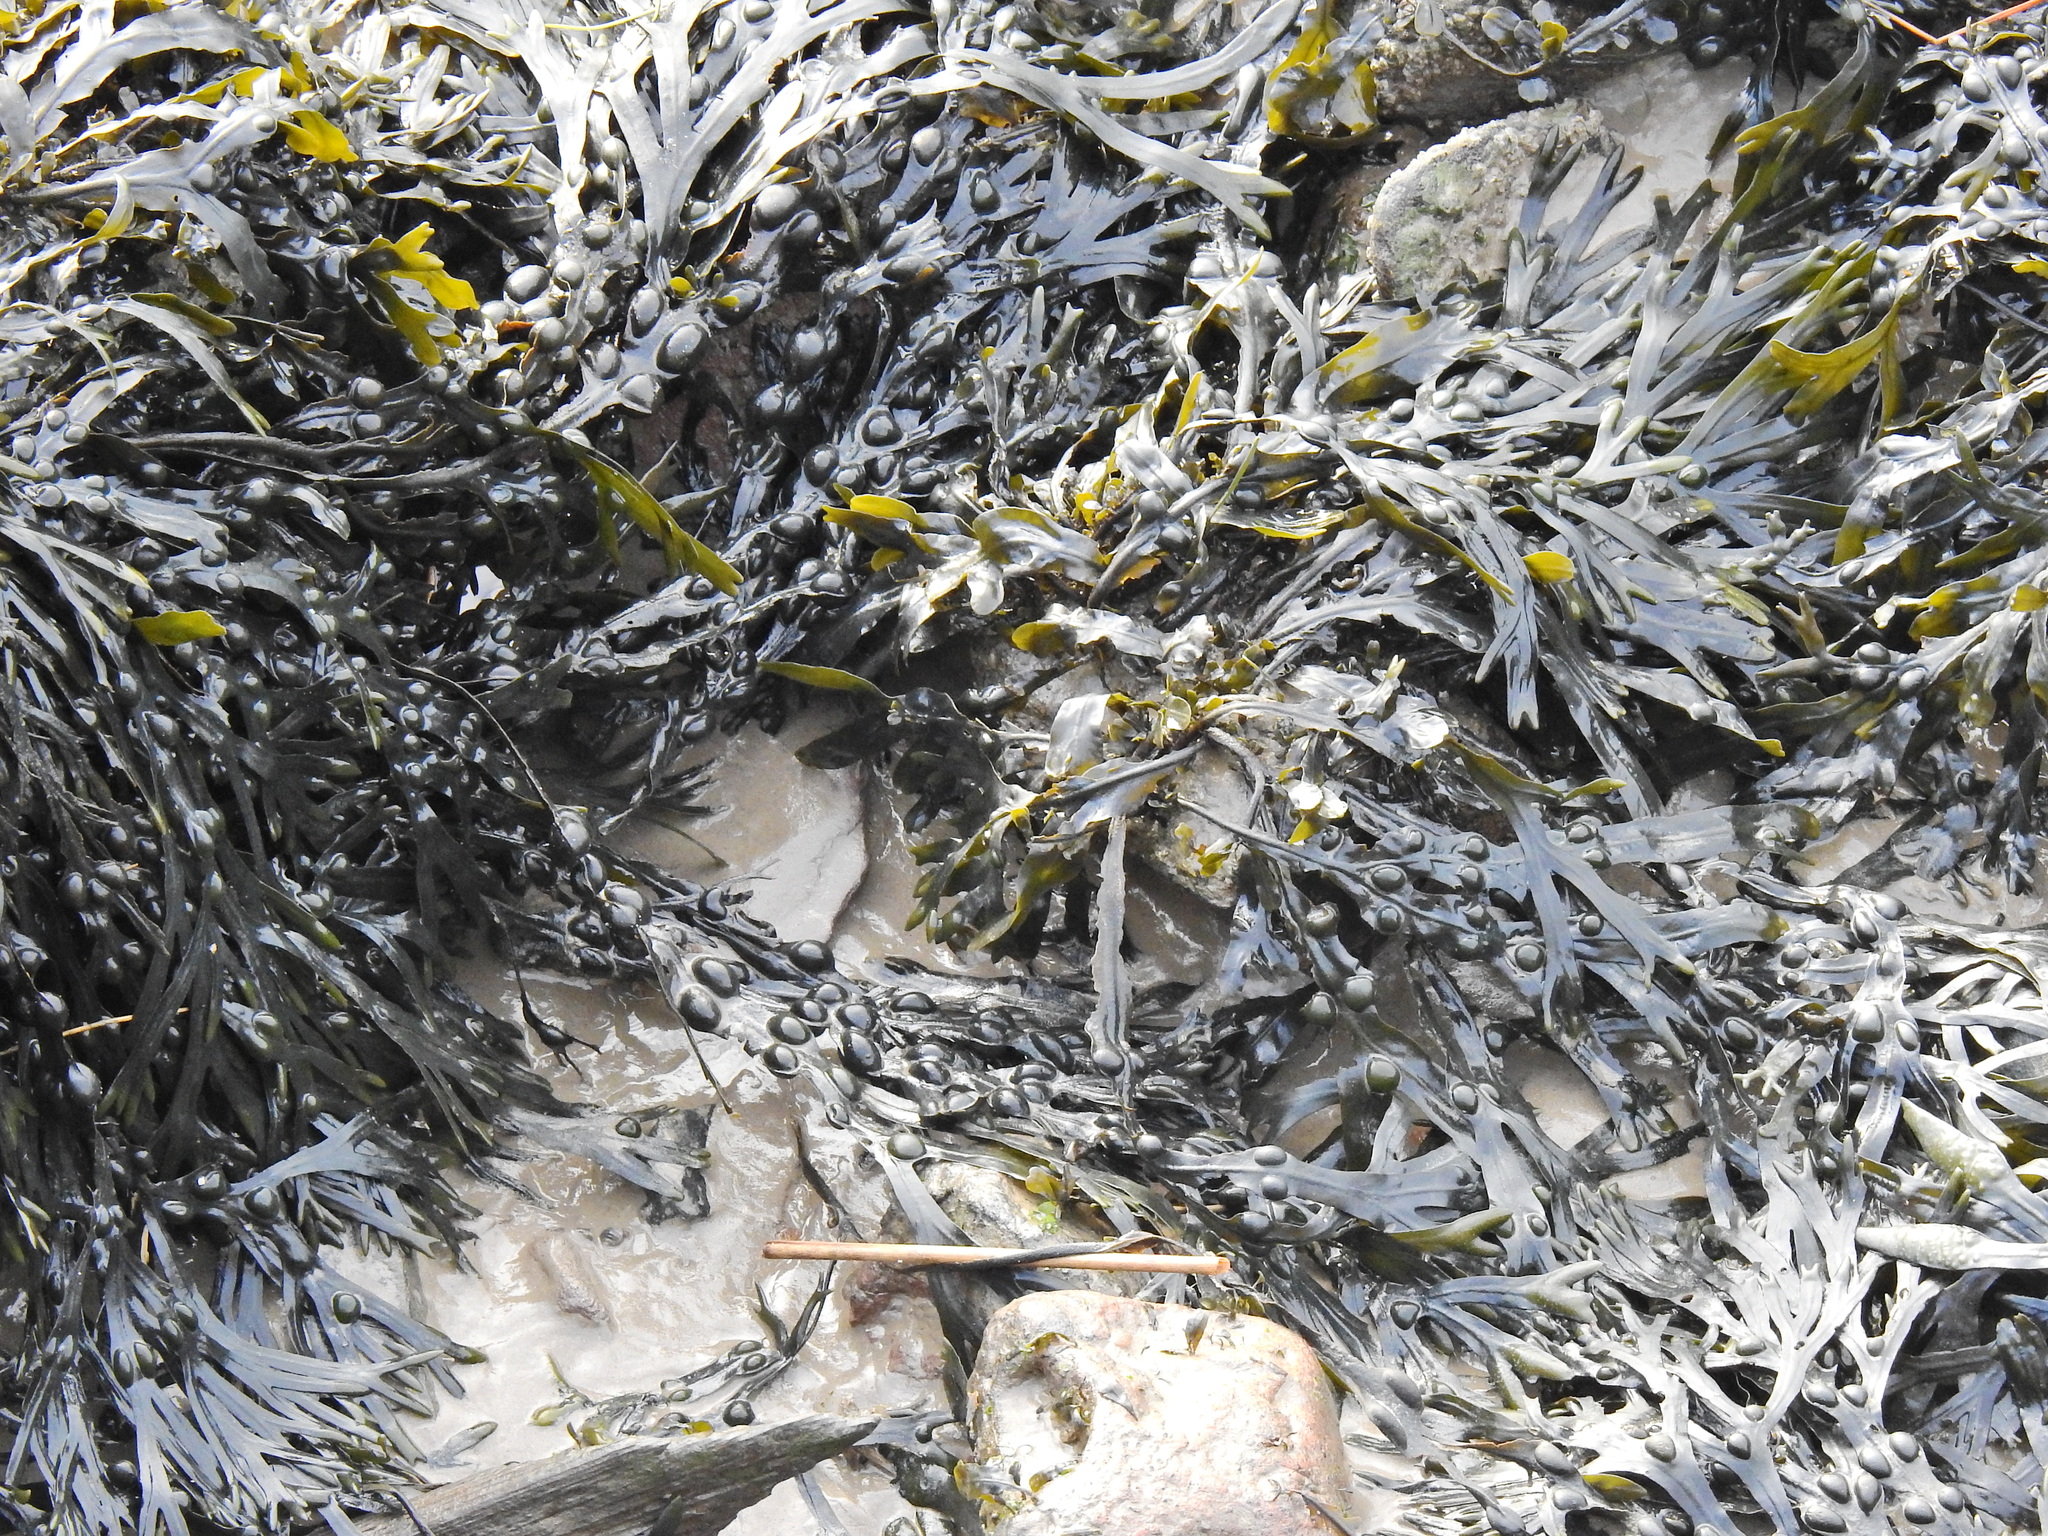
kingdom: Chromista
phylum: Ochrophyta
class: Phaeophyceae
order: Fucales
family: Fucaceae
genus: Fucus
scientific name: Fucus vesiculosus
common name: Bladder wrack
